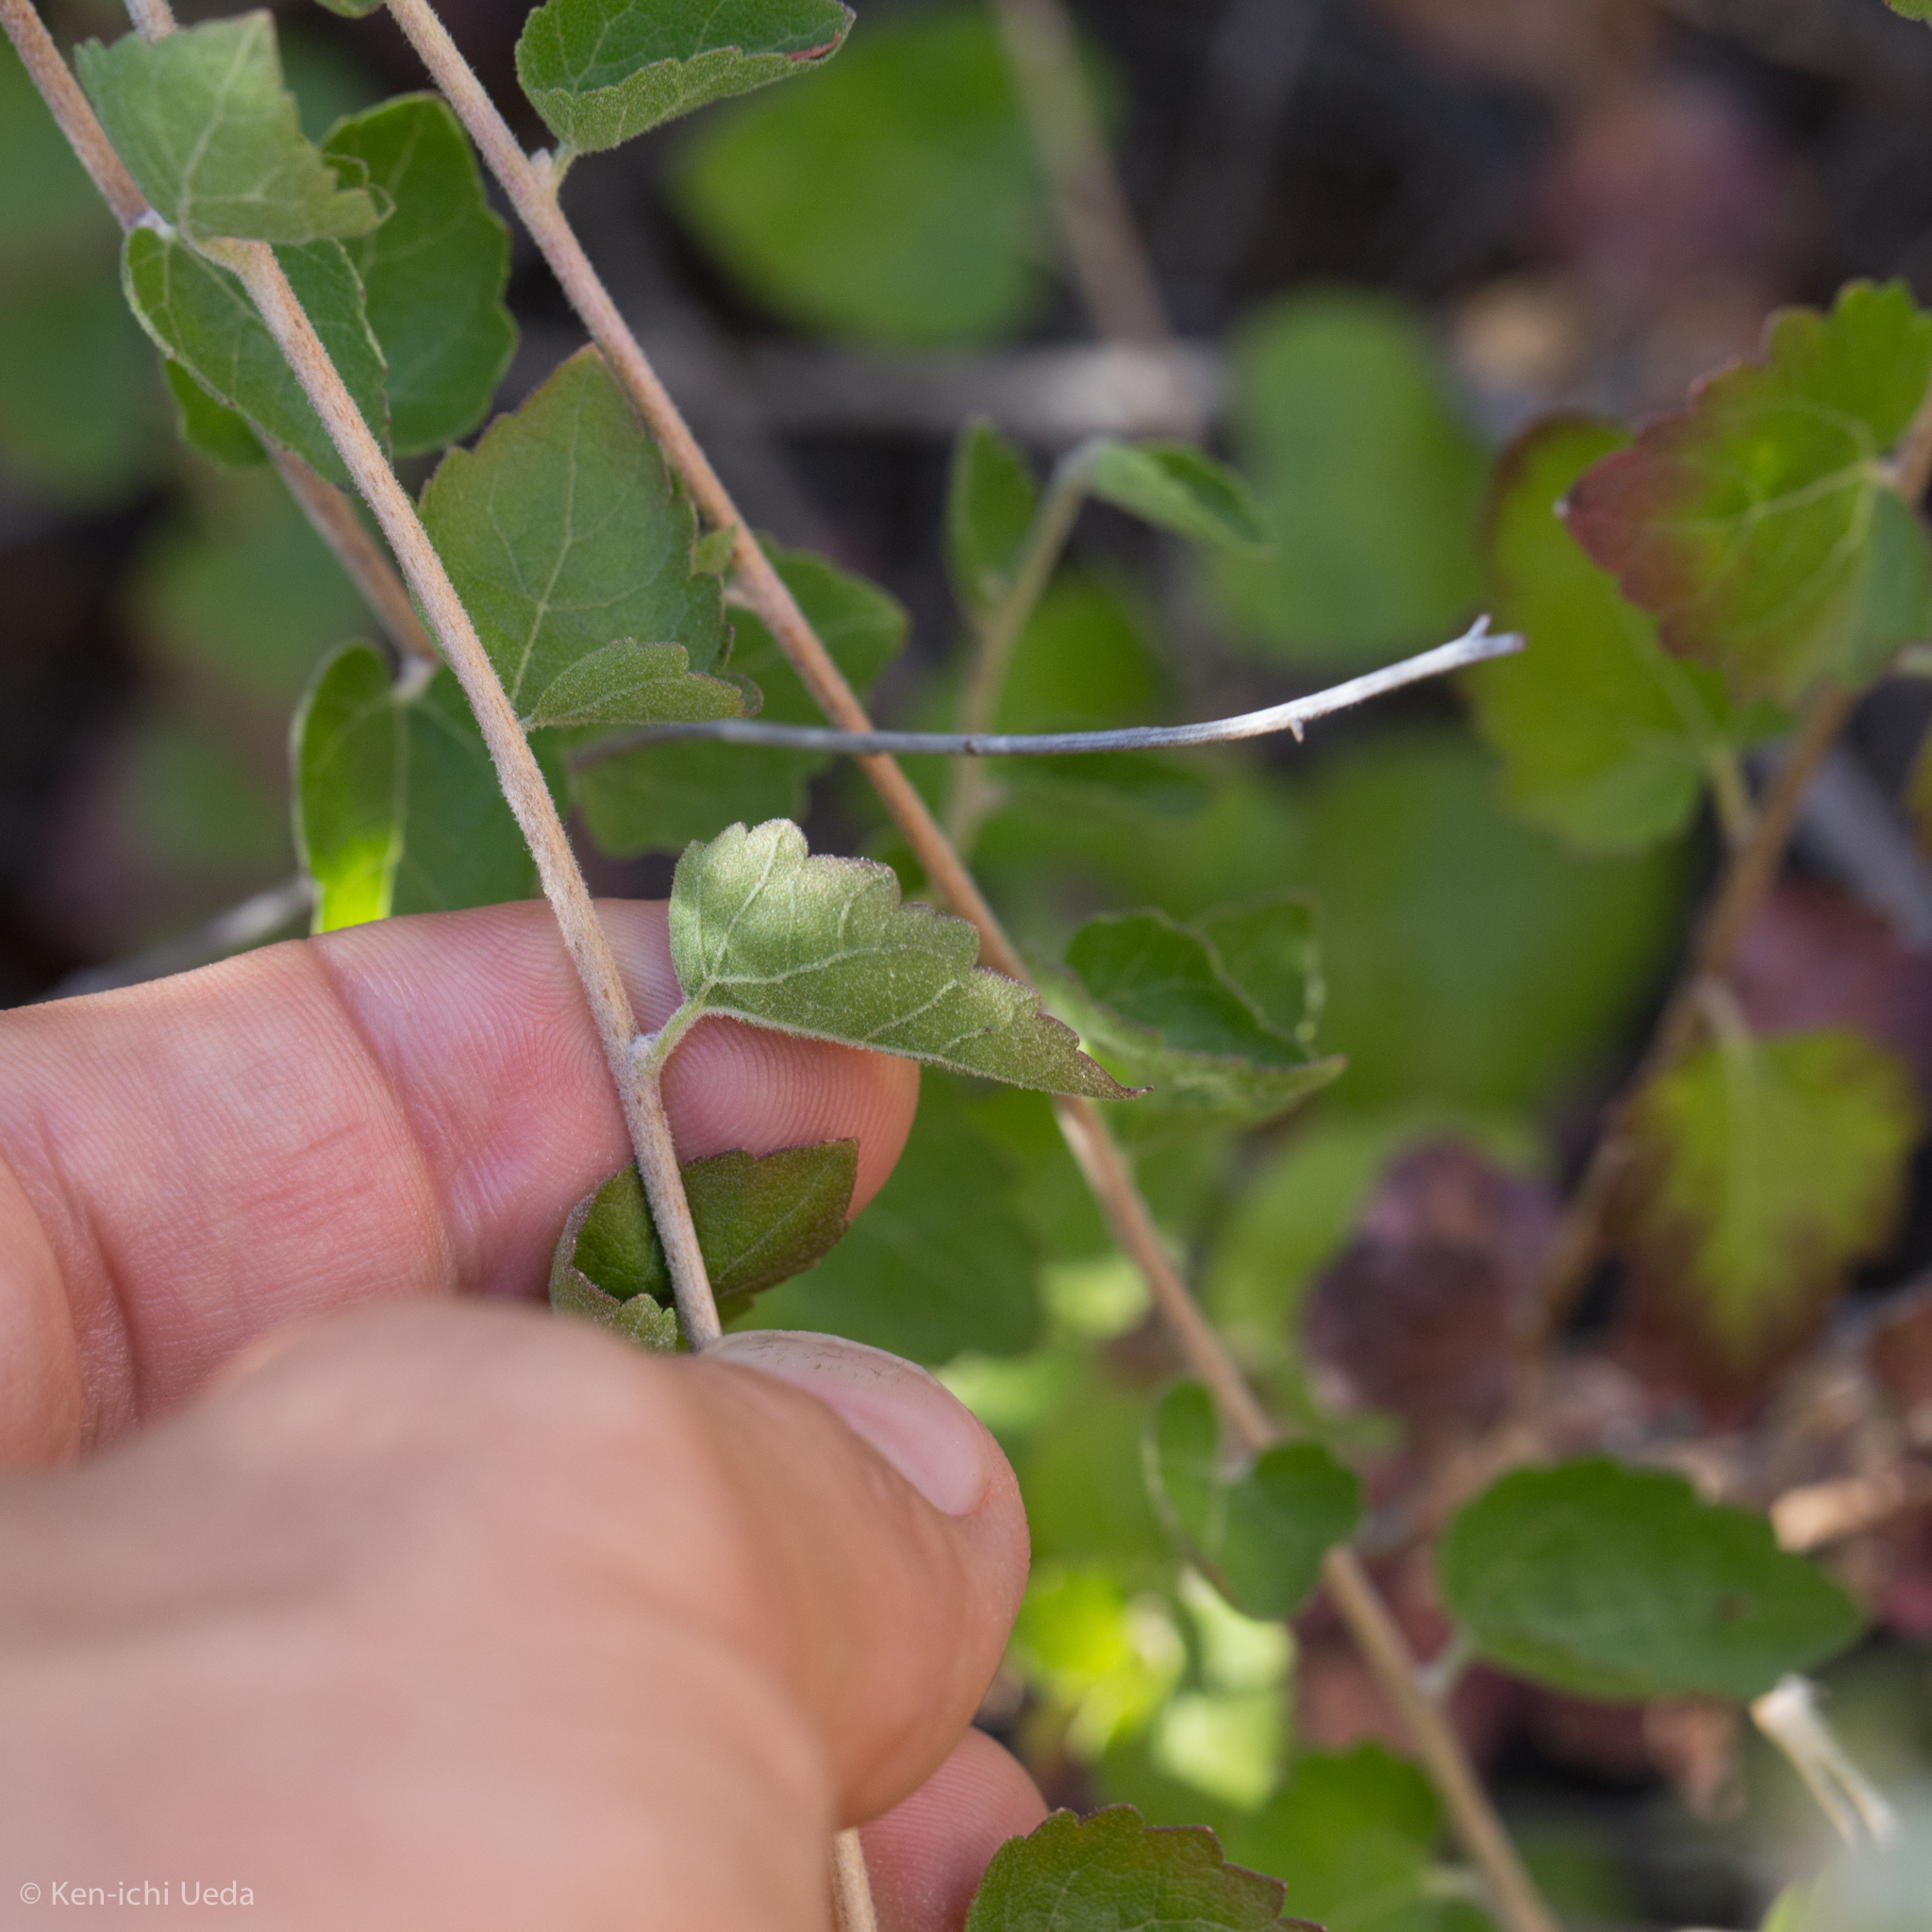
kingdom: Plantae
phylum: Tracheophyta
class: Magnoliopsida
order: Asterales
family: Asteraceae
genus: Brickellia
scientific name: Brickellia californica
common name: California brickellbush
